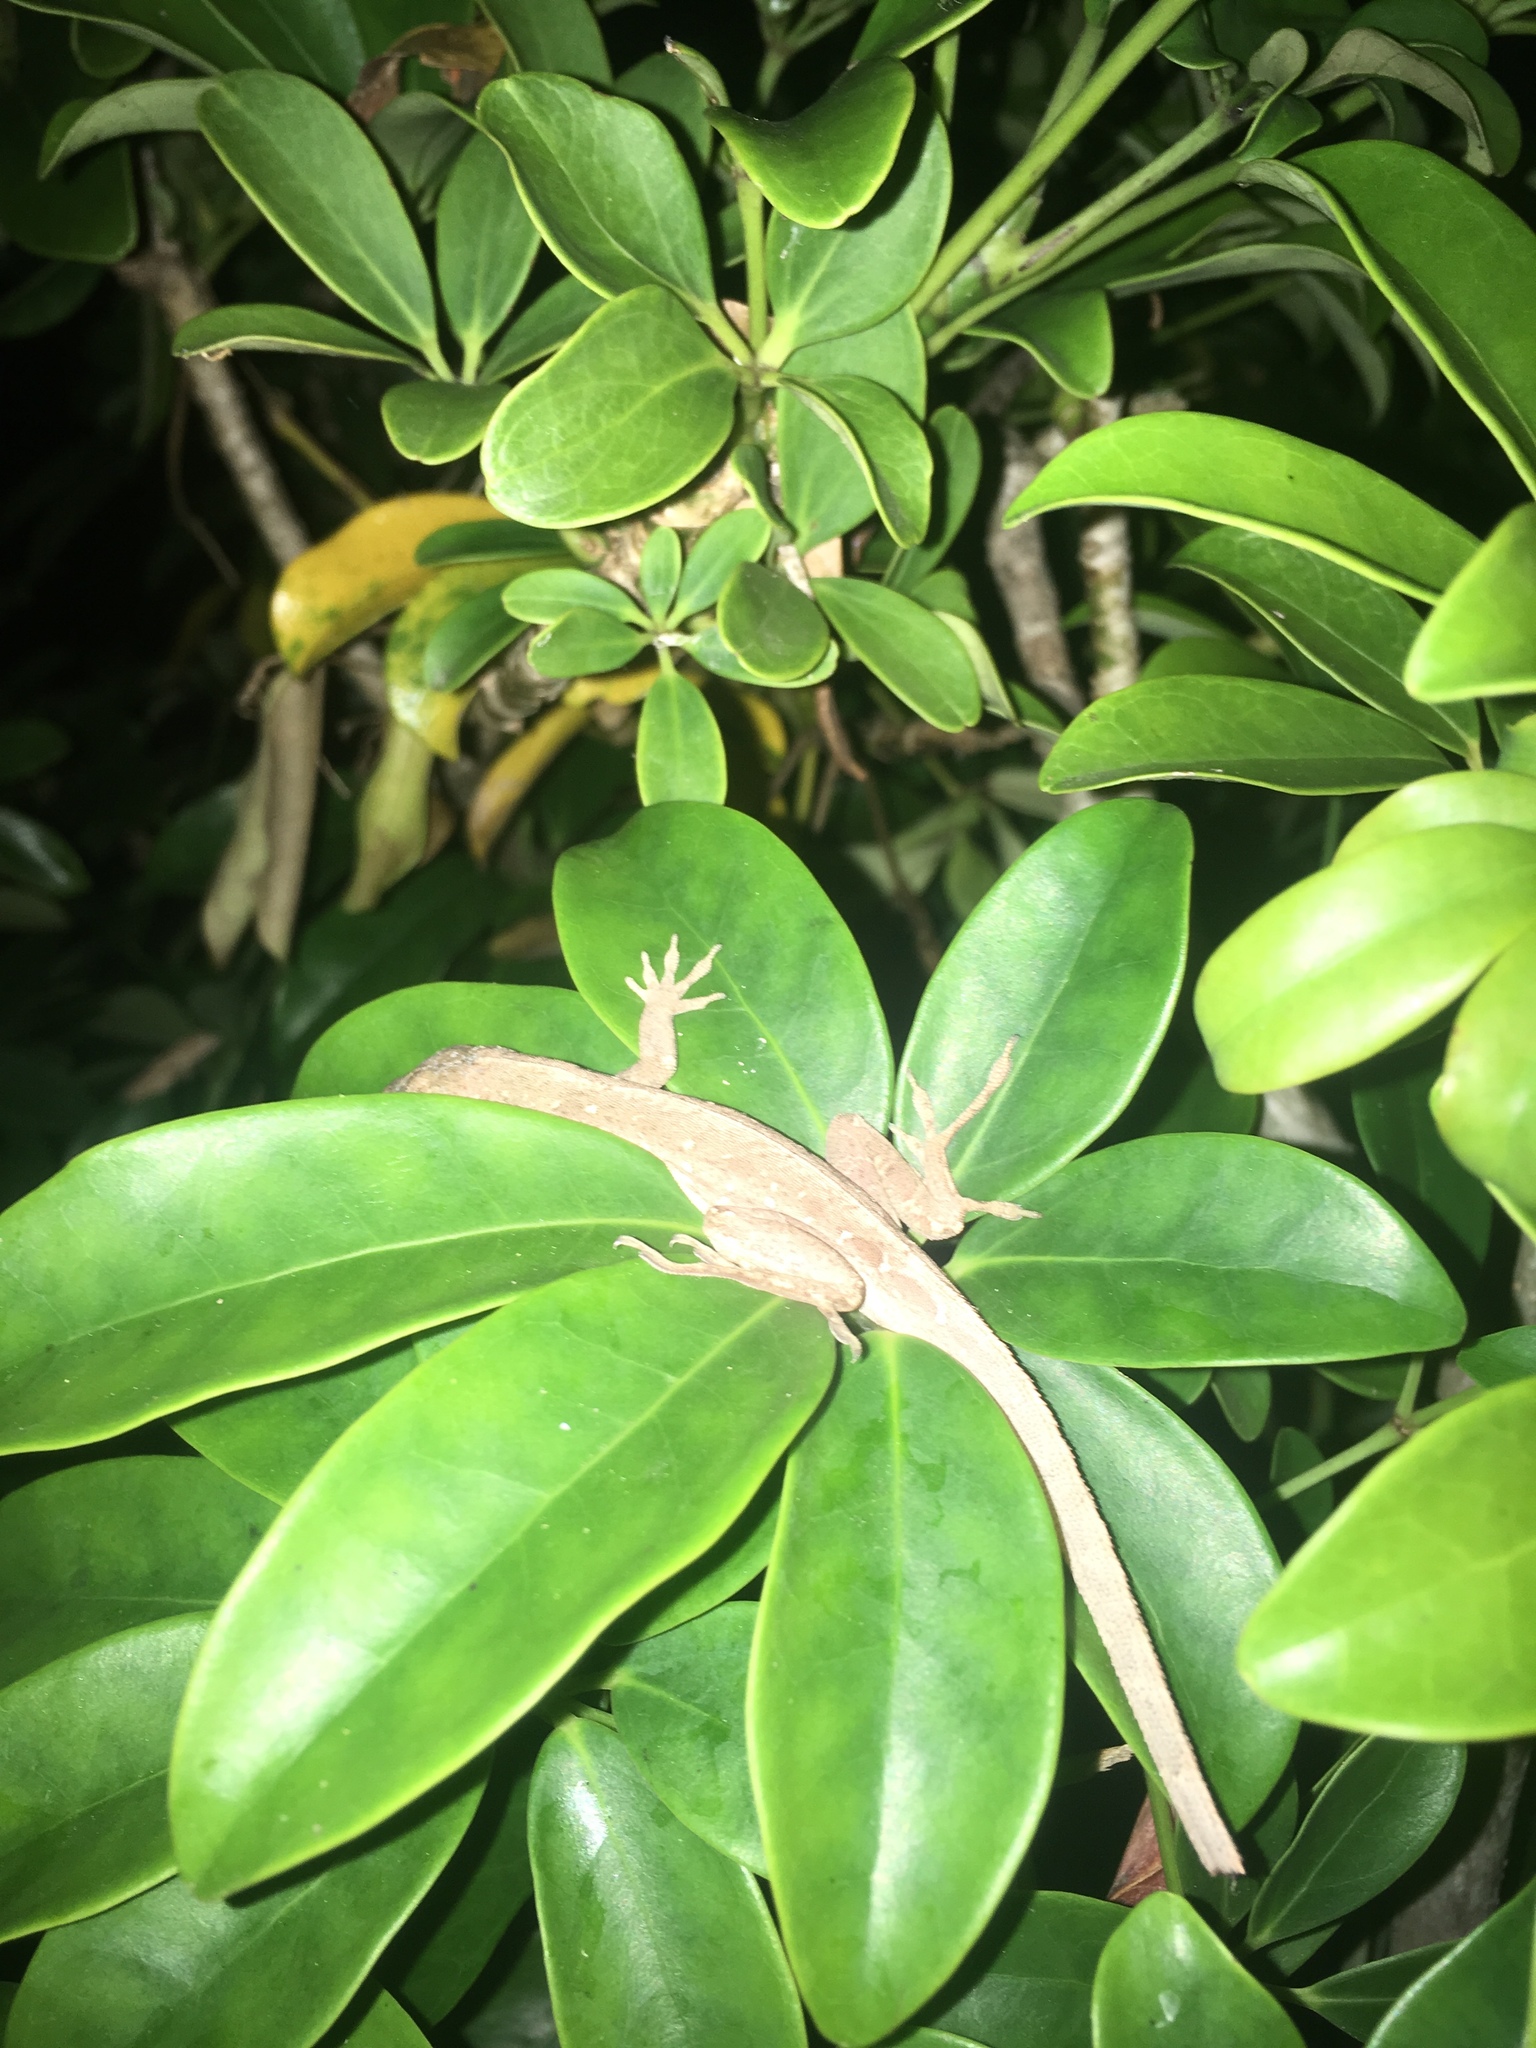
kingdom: Animalia
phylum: Chordata
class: Squamata
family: Dactyloidae
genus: Anolis
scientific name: Anolis sagrei
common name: Brown anole
